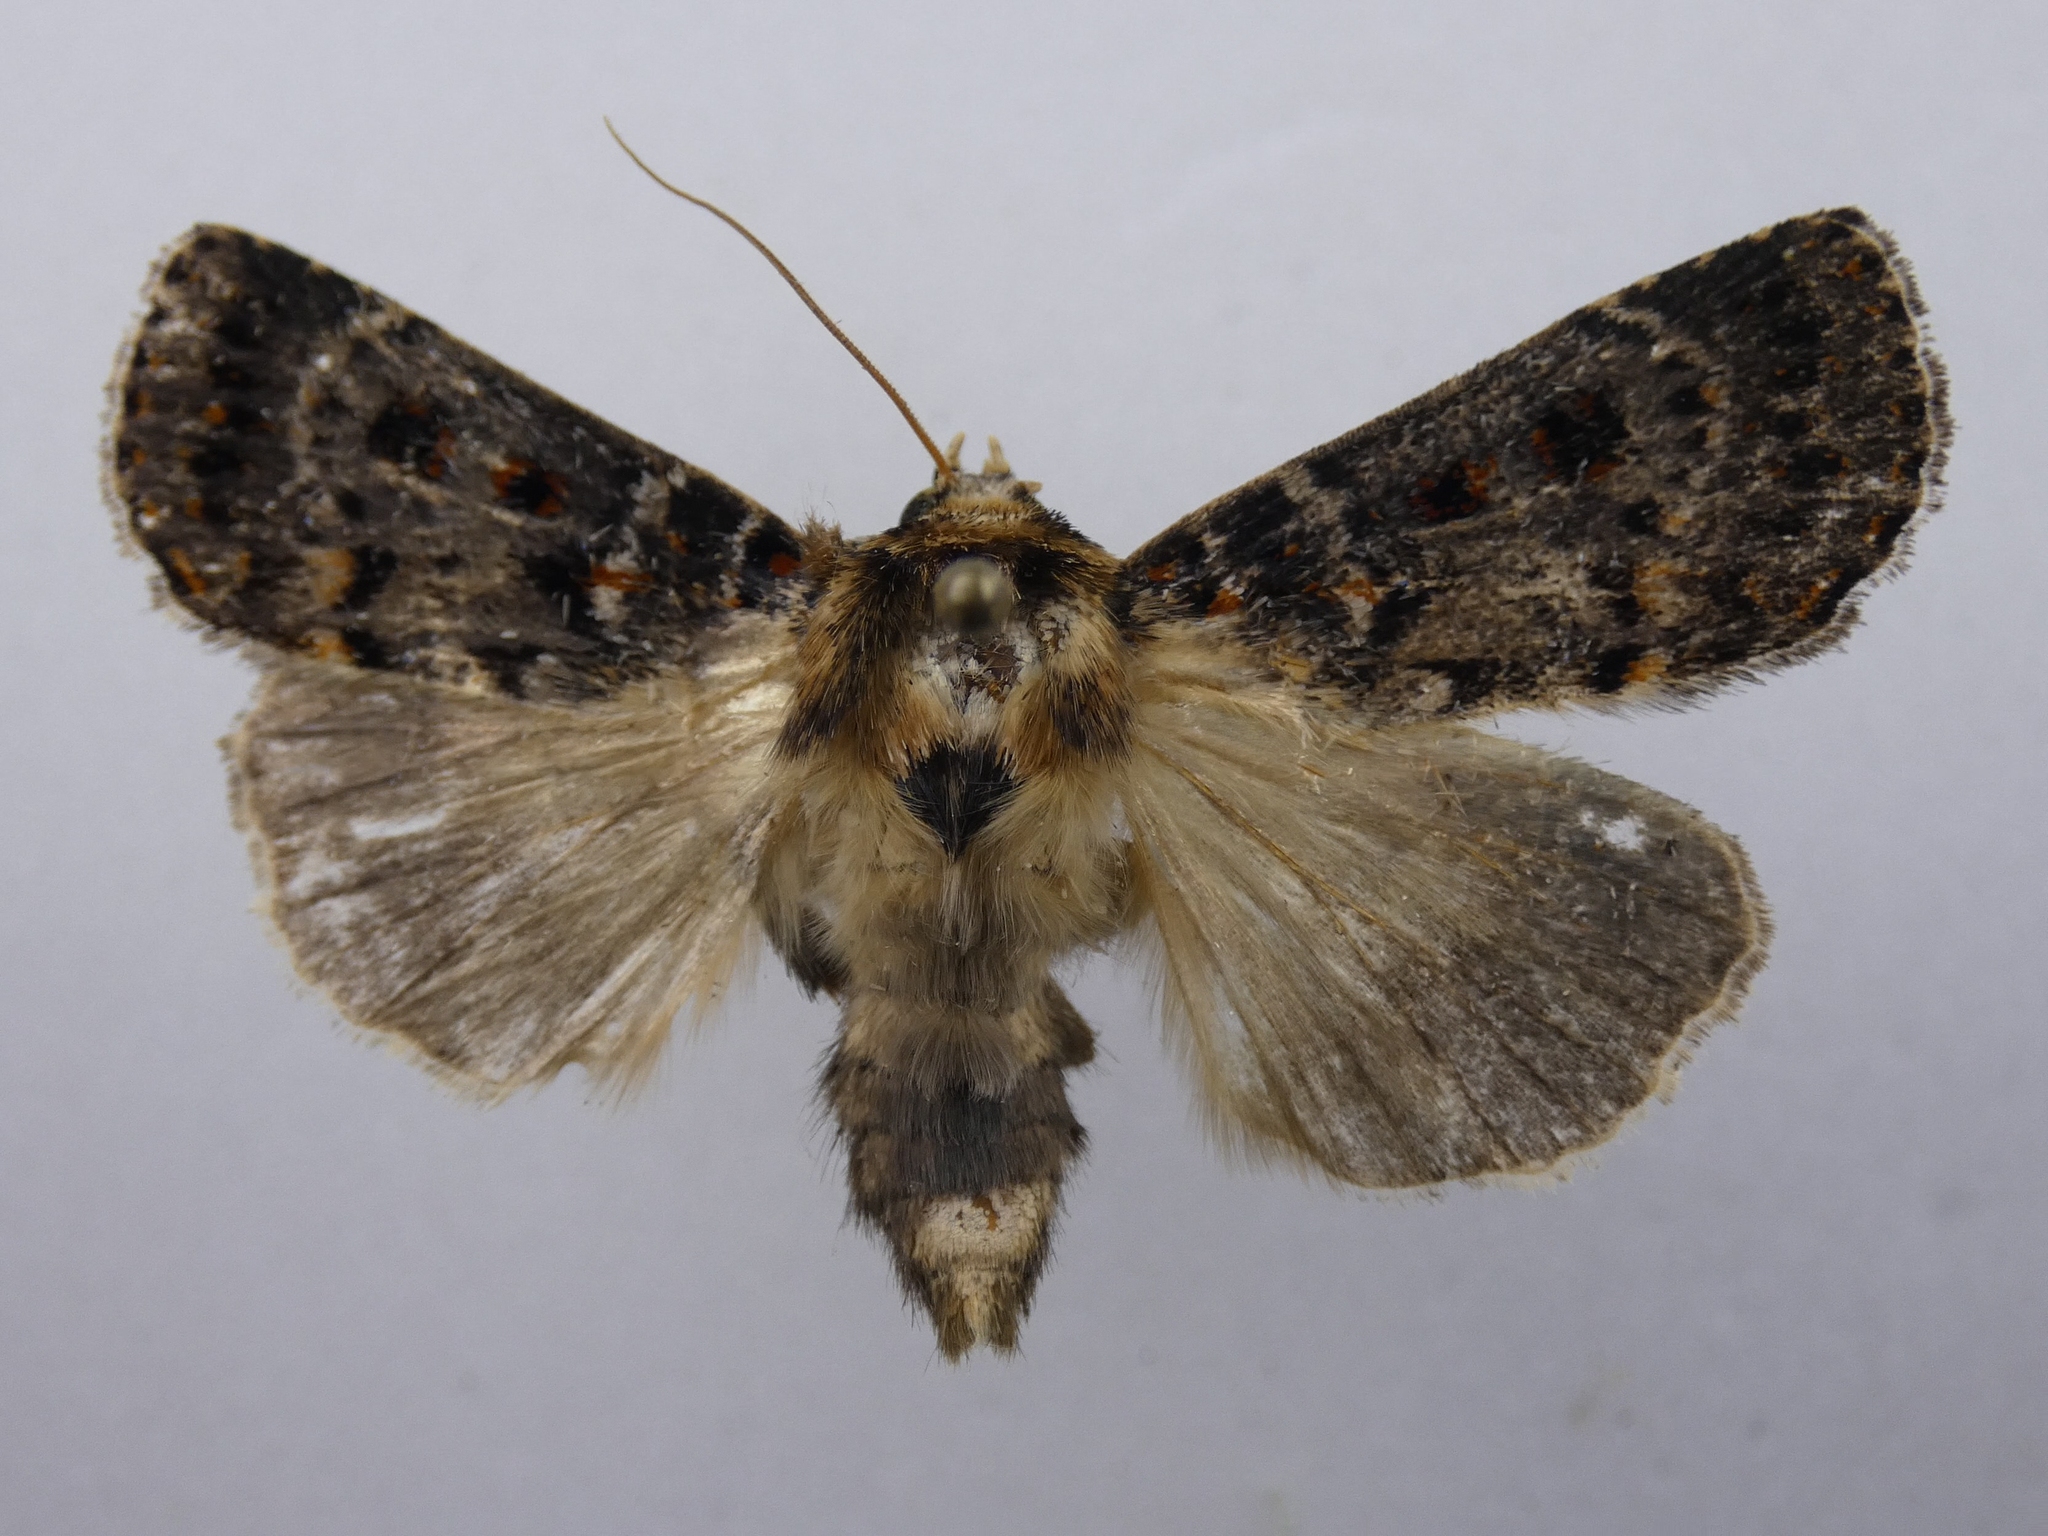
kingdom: Animalia
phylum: Arthropoda
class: Insecta
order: Lepidoptera
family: Noctuidae
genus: Proteuxoa
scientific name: Proteuxoa sanguinipuncta
